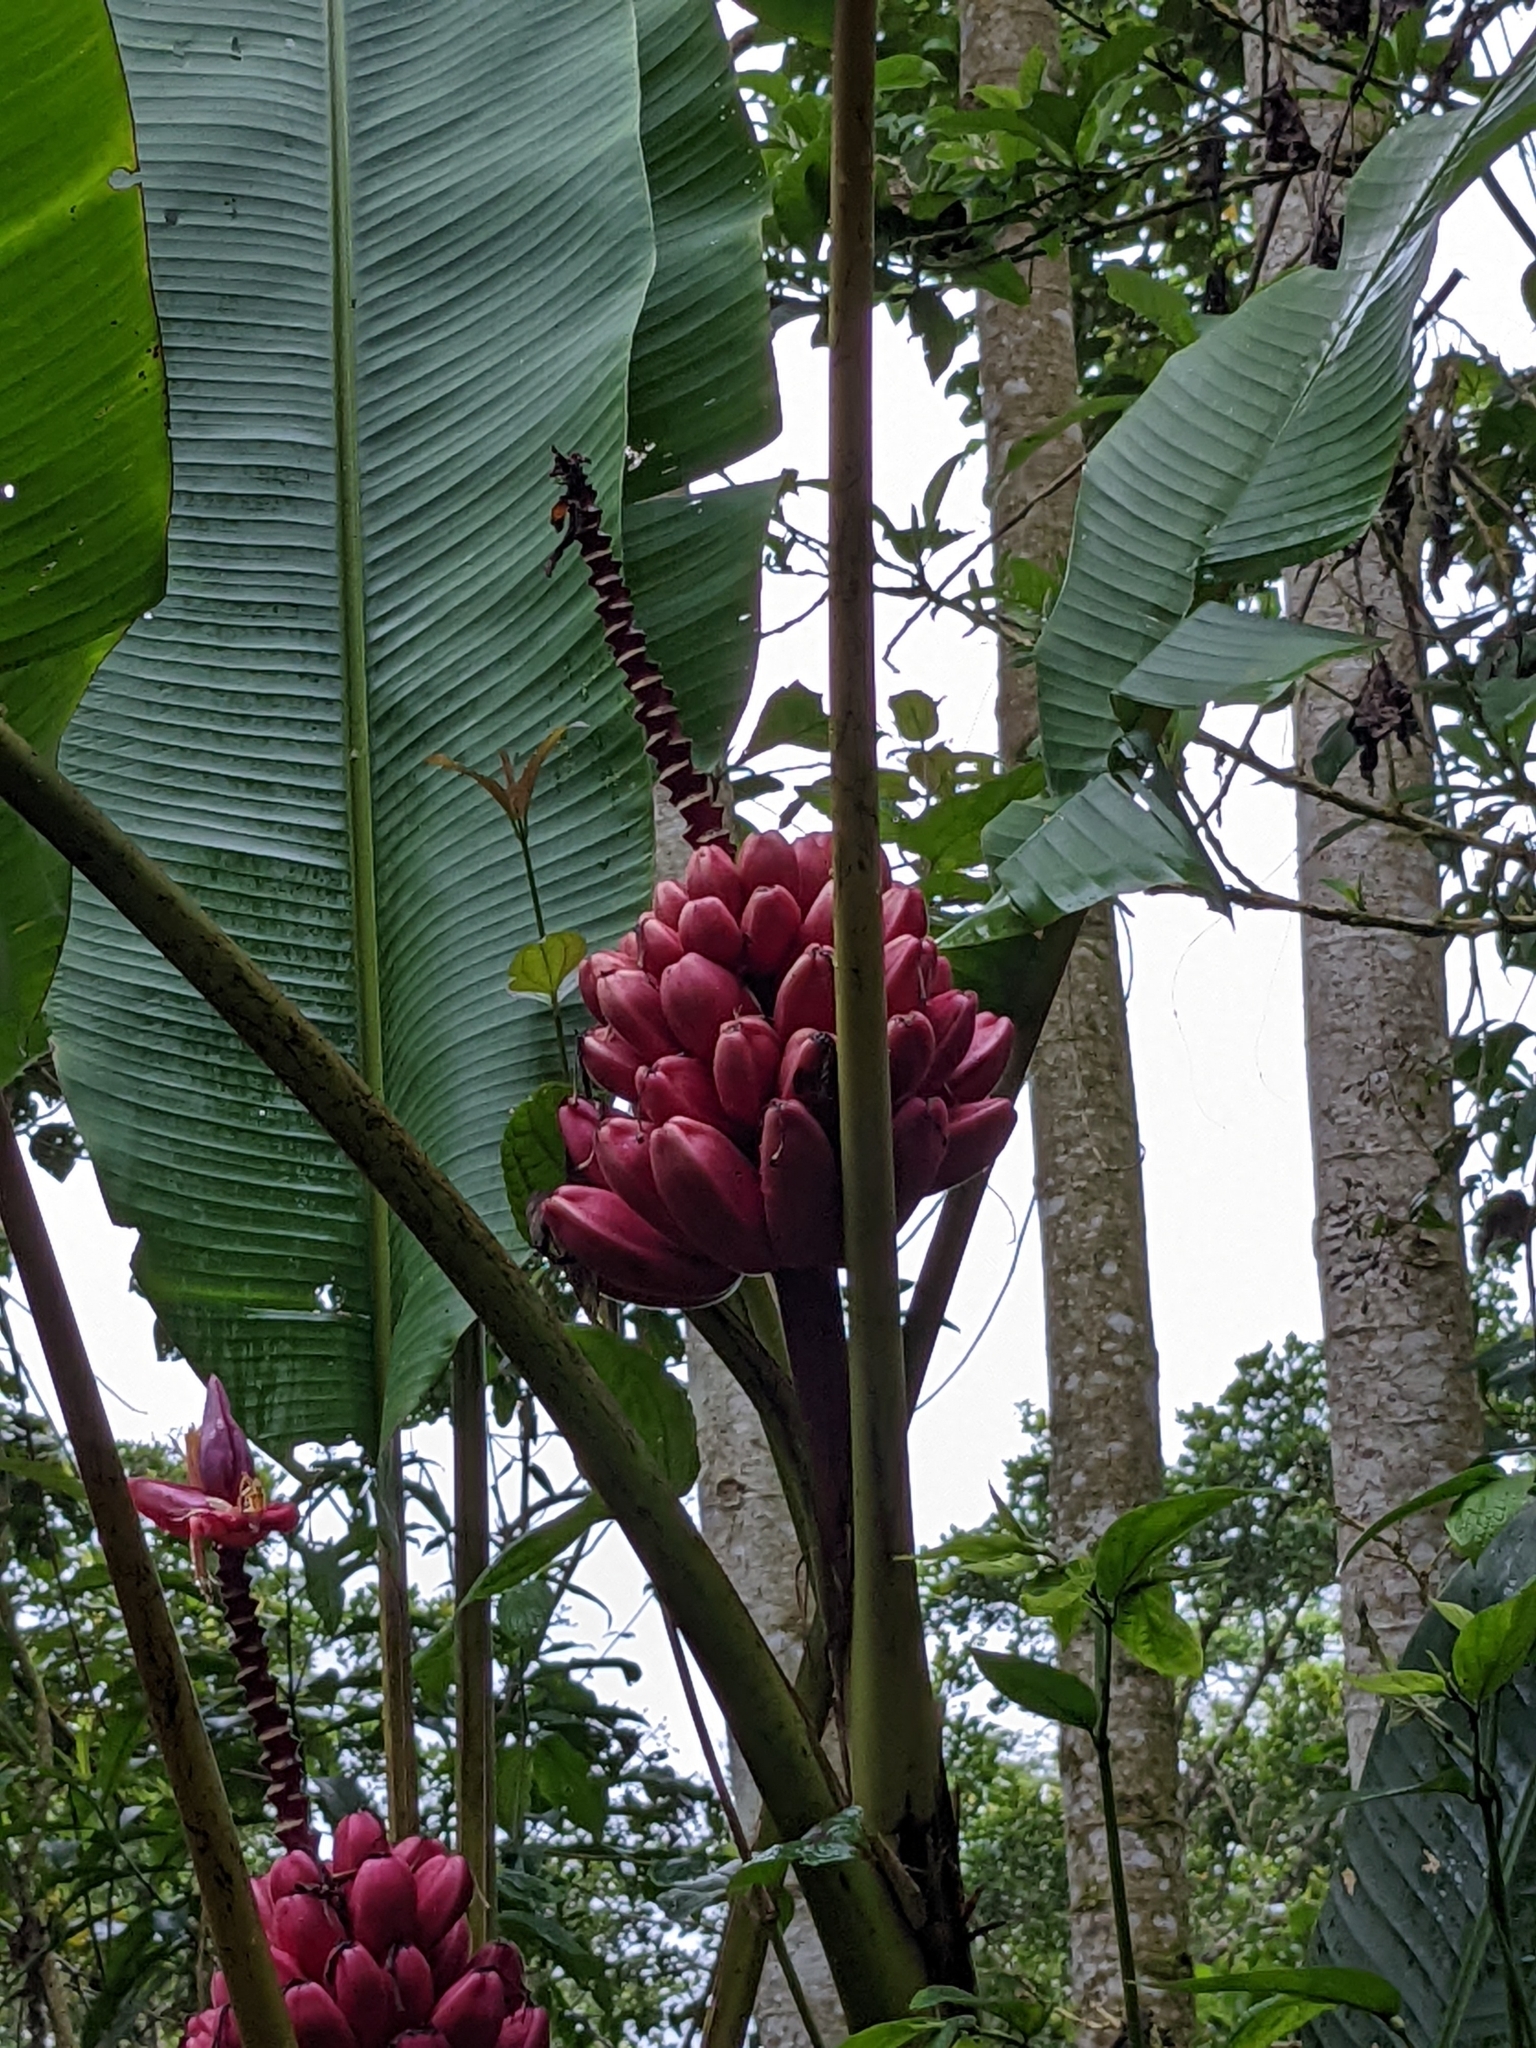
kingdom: Plantae
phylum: Tracheophyta
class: Liliopsida
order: Zingiberales
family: Musaceae
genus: Musa
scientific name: Musa velutina
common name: Pink velvet banana
